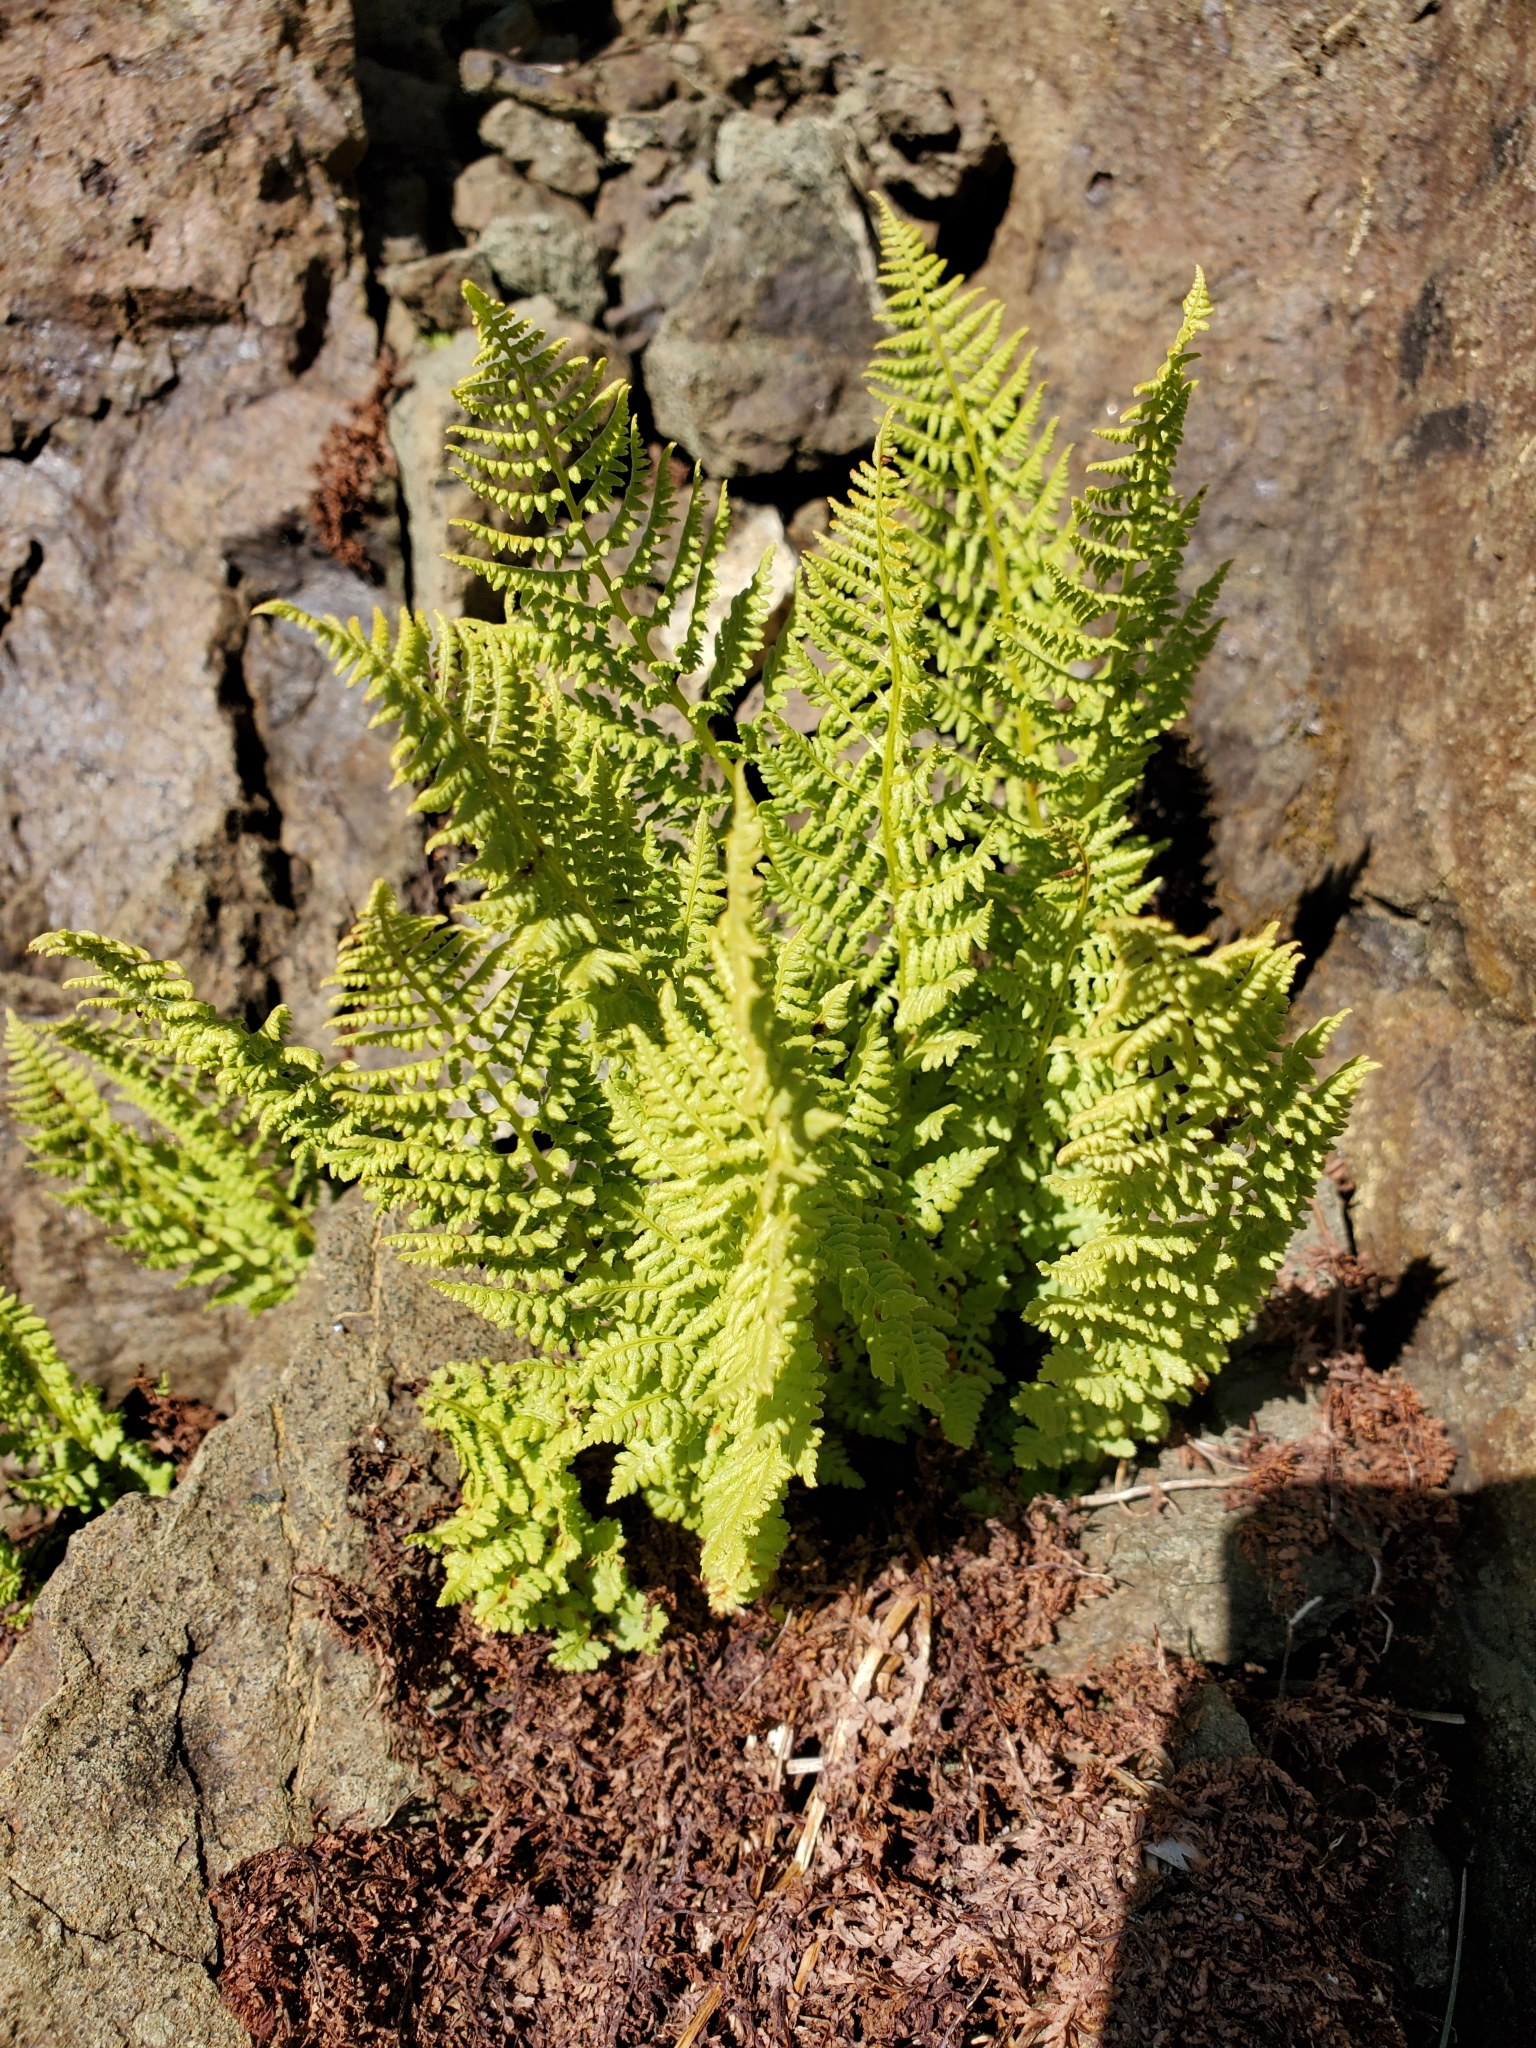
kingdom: Plantae
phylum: Tracheophyta
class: Polypodiopsida
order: Polypodiales
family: Athyriaceae
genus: Athyrium
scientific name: Athyrium americanum
